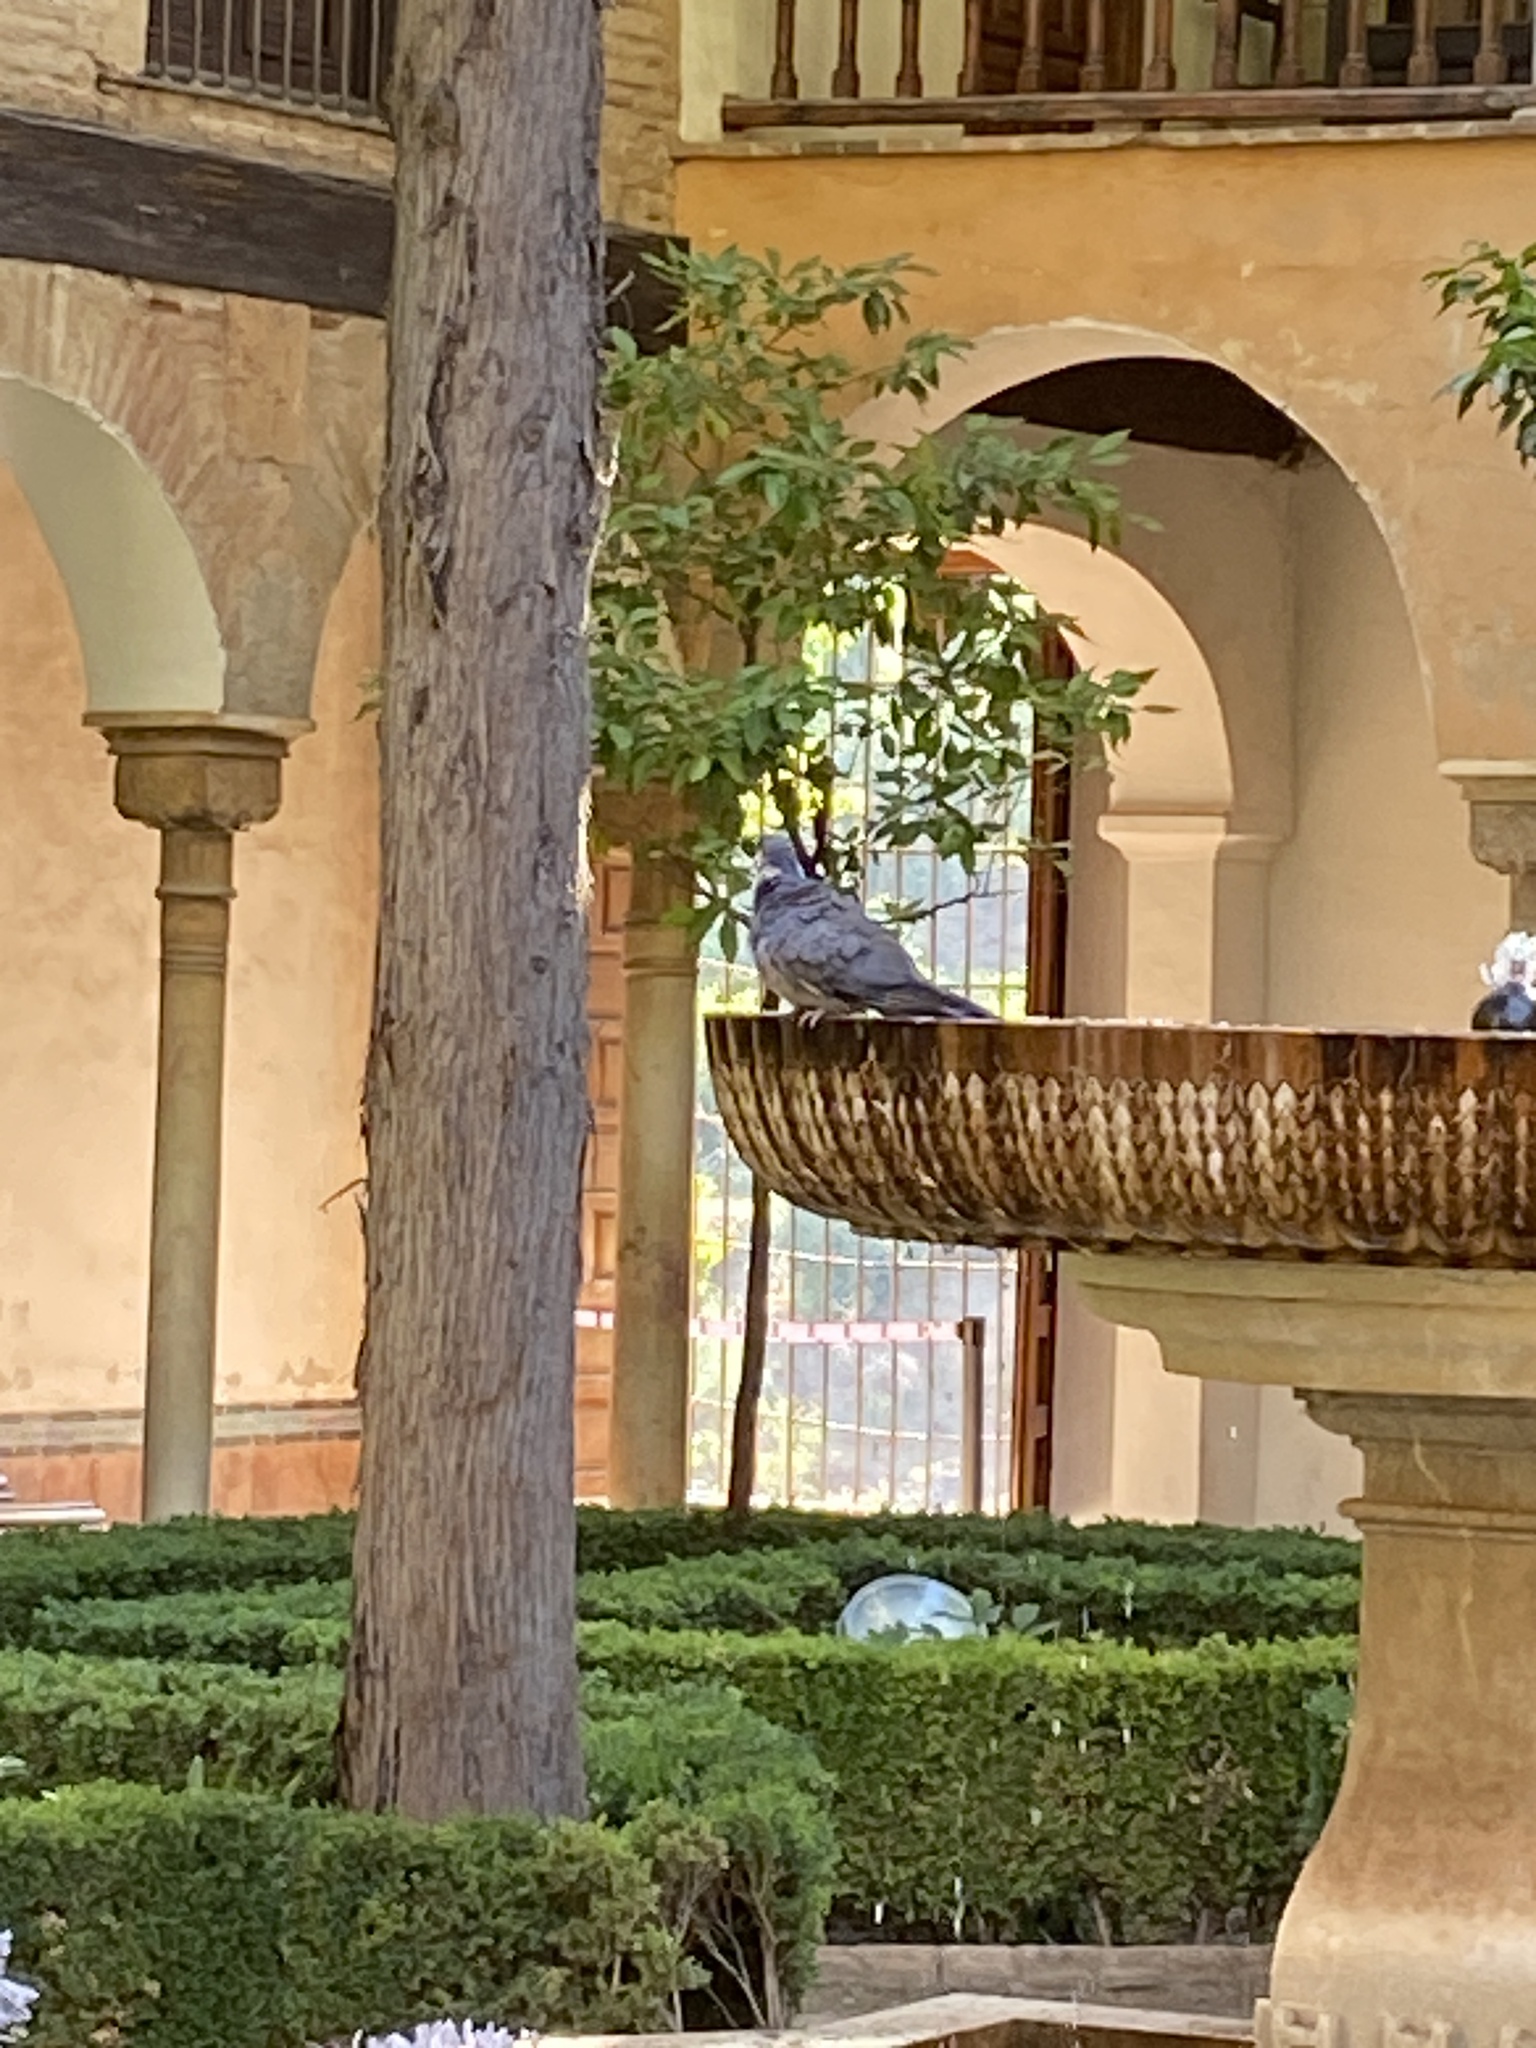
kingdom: Animalia
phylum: Chordata
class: Aves
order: Columbiformes
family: Columbidae
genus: Columba
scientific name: Columba palumbus
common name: Common wood pigeon
